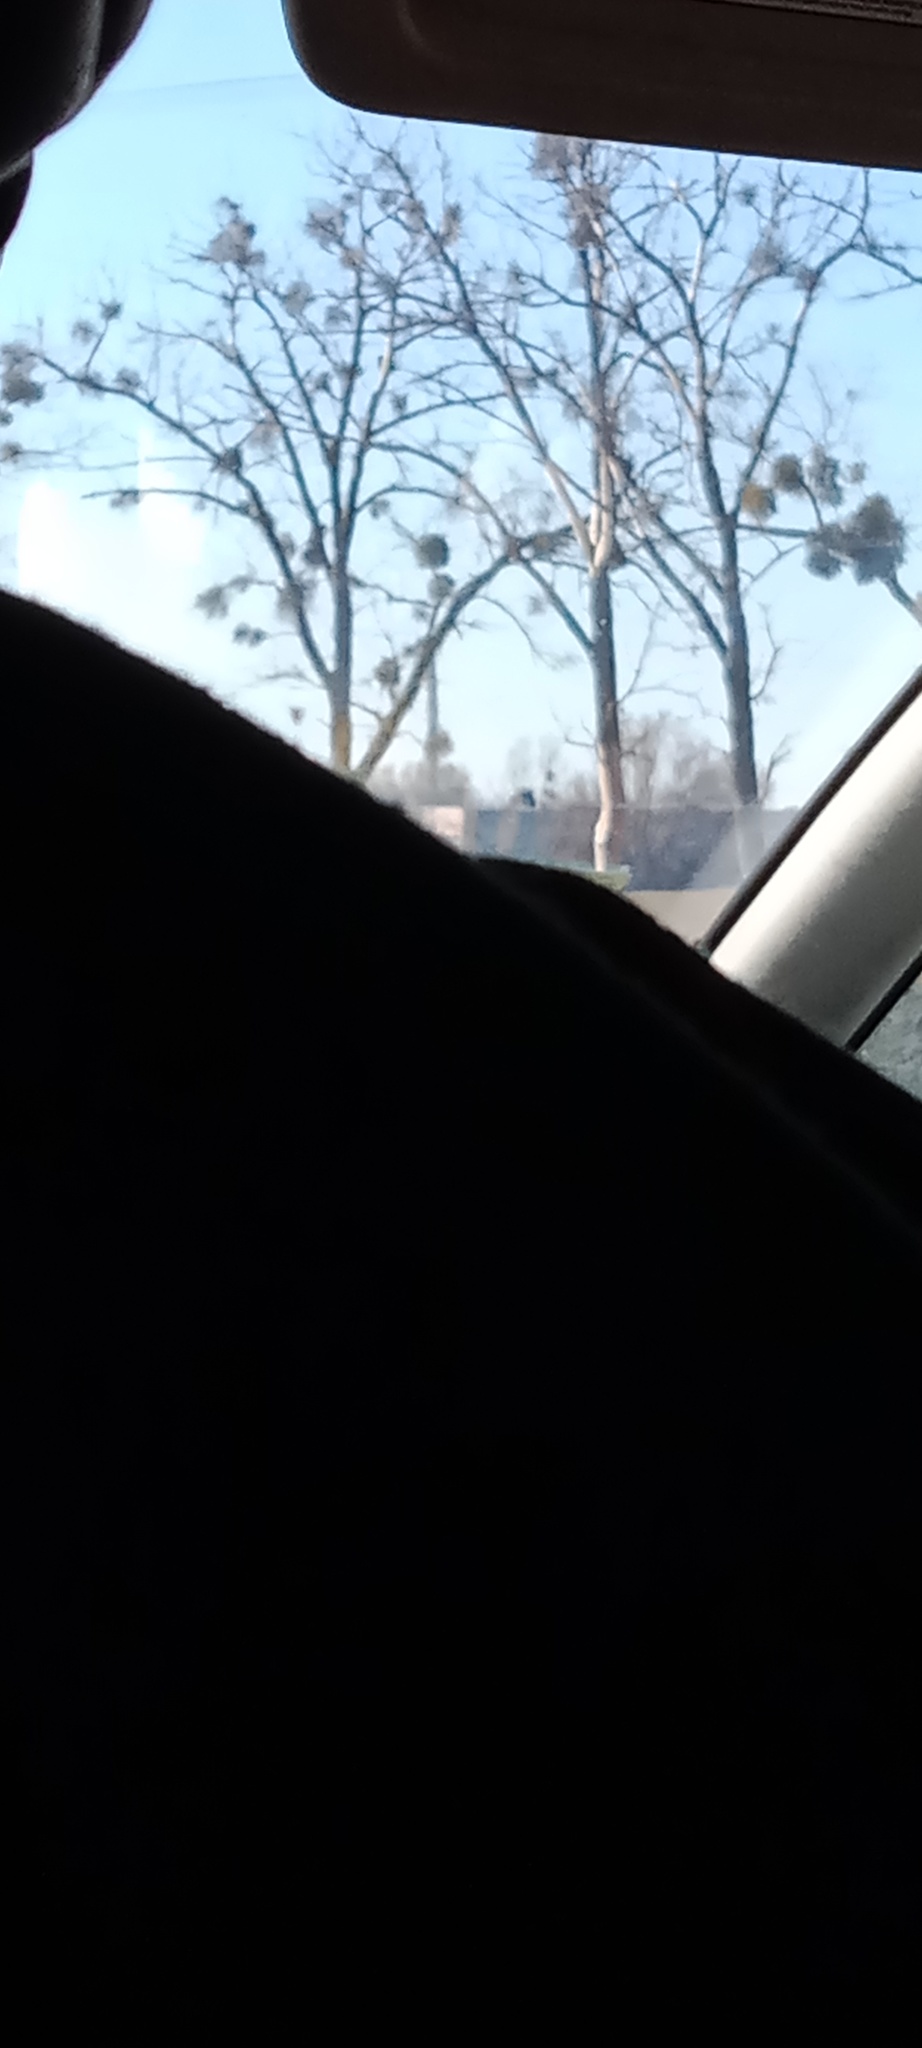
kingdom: Plantae
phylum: Tracheophyta
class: Magnoliopsida
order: Santalales
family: Viscaceae
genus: Viscum
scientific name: Viscum album
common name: Mistletoe
